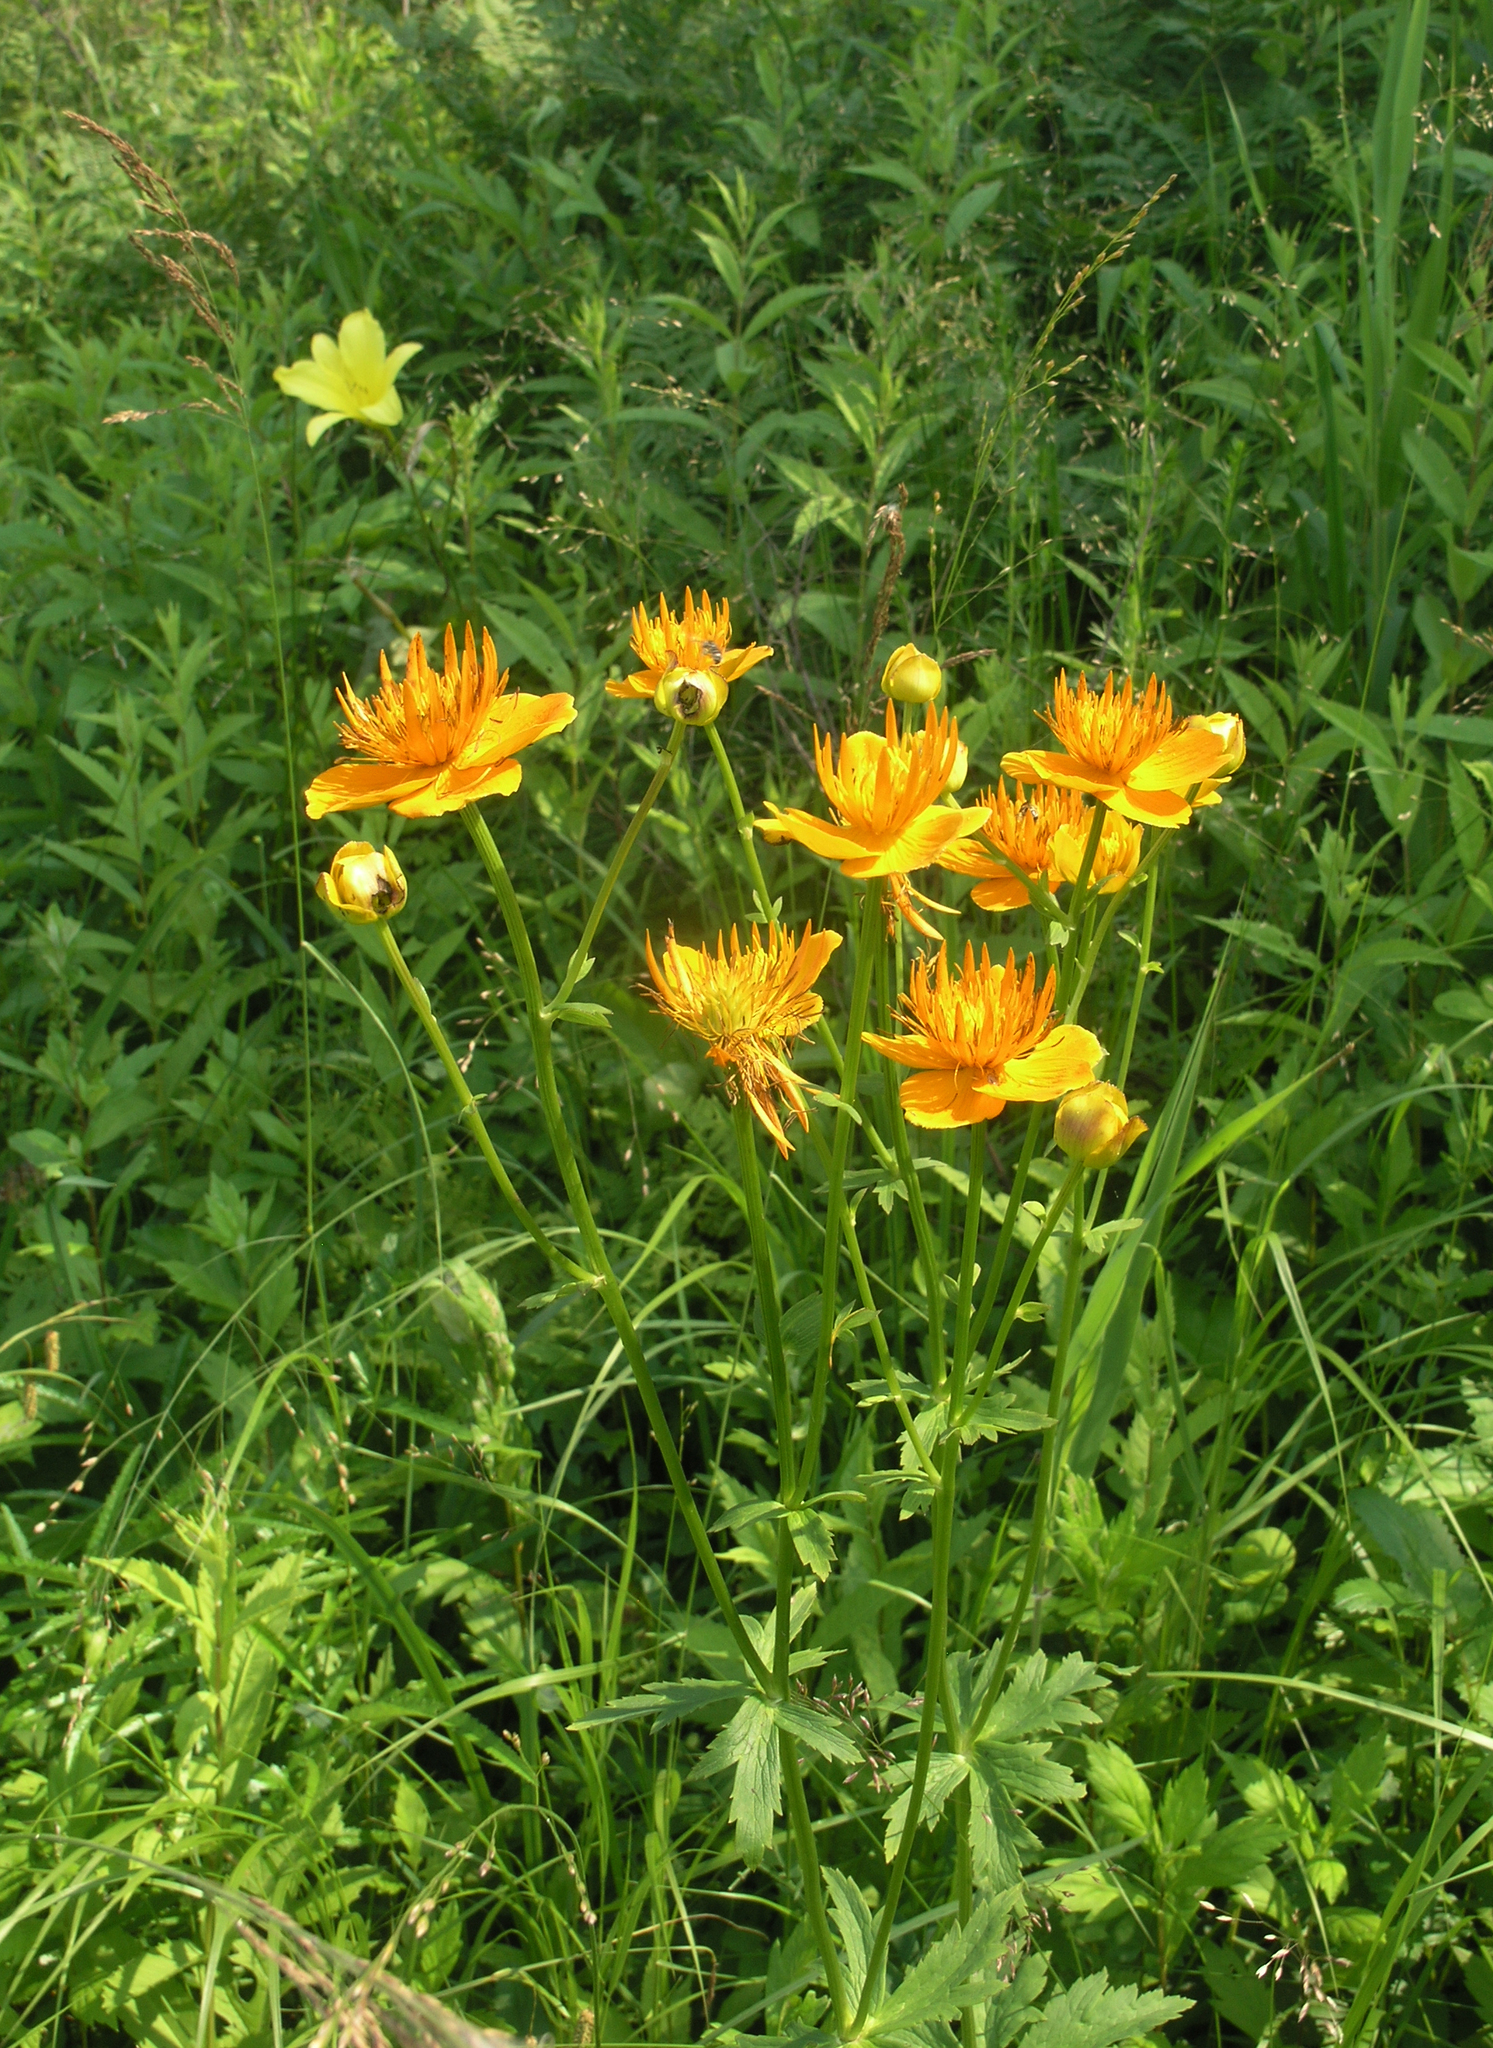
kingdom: Plantae
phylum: Tracheophyta
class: Magnoliopsida
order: Ranunculales
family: Ranunculaceae
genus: Trollius
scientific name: Trollius chinensis
